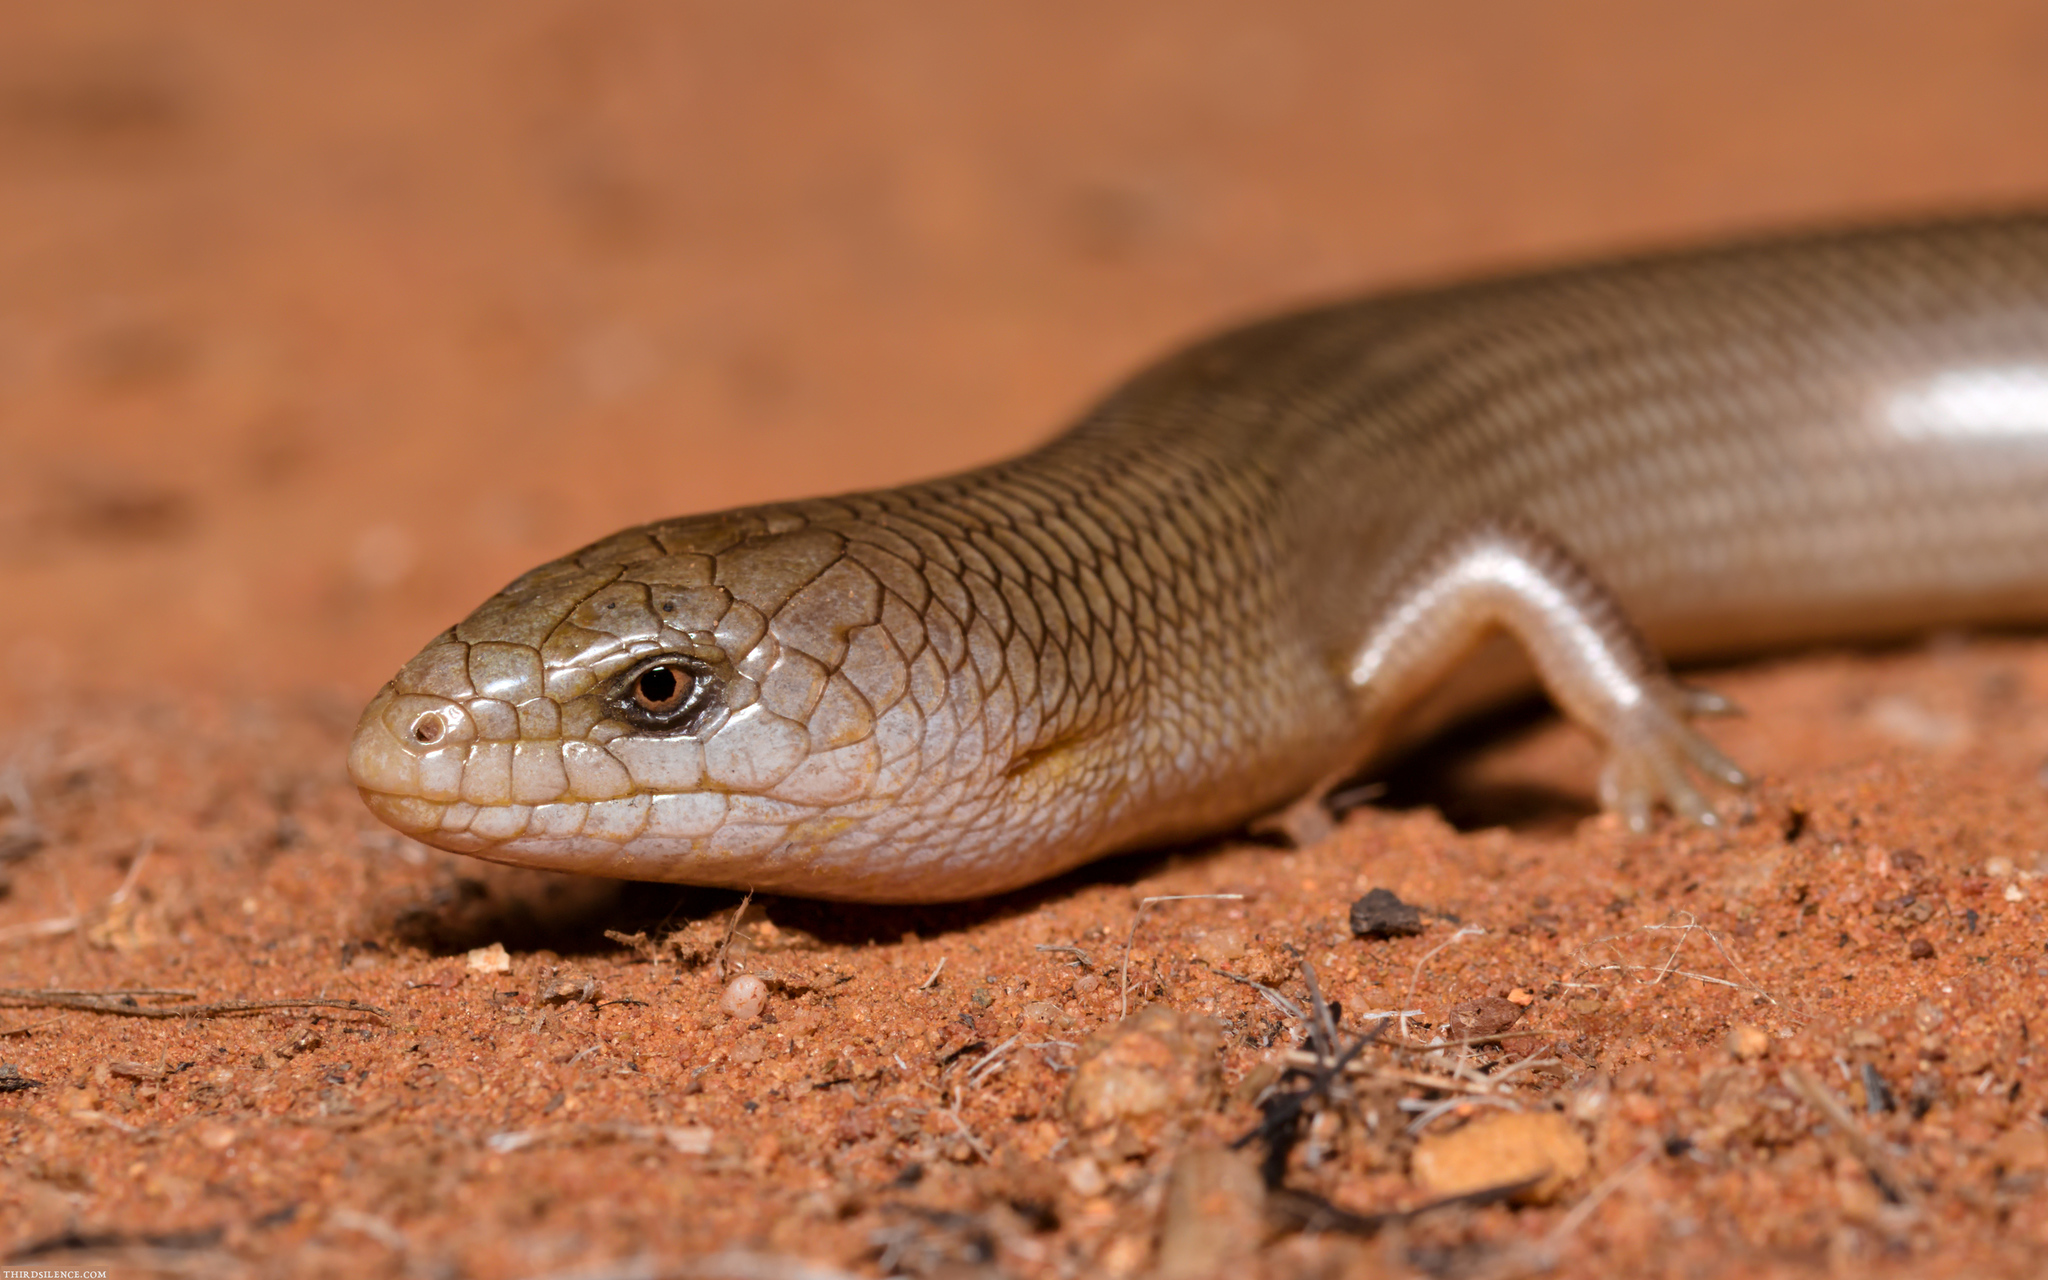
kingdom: Animalia
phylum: Chordata
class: Squamata
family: Scincidae
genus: Cyclodomorphus
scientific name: Cyclodomorphus melanops
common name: Samphire slender bluetongue
